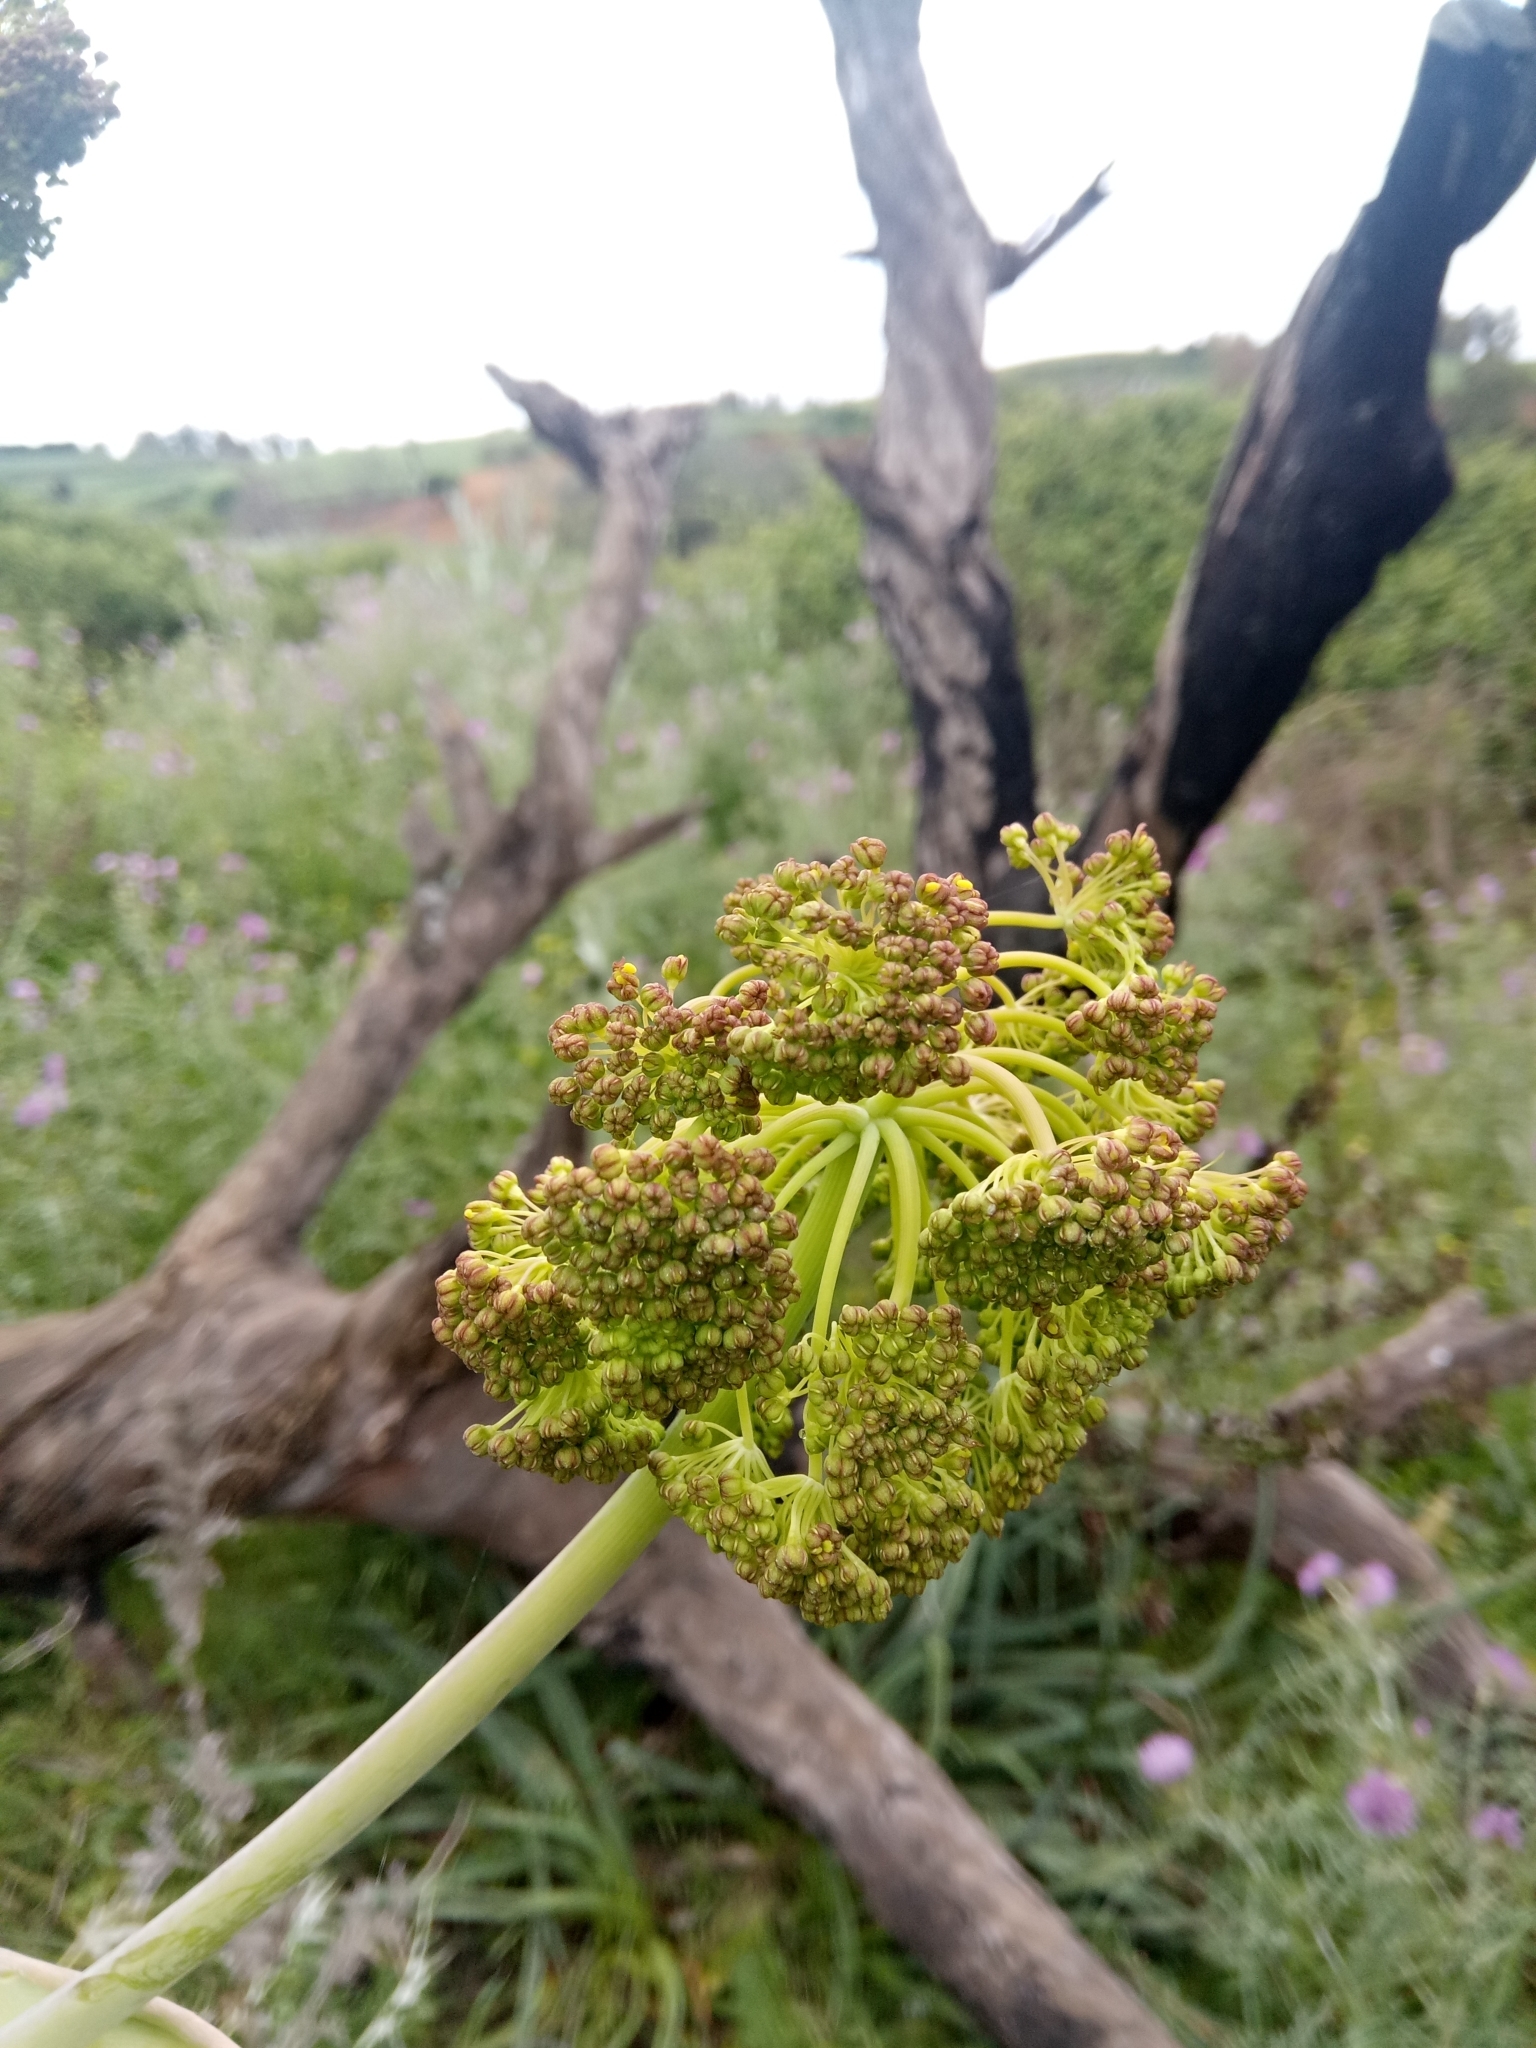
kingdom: Plantae
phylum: Tracheophyta
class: Magnoliopsida
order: Apiales
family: Apiaceae
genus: Ferula
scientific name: Ferula communis
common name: Giant fennel
